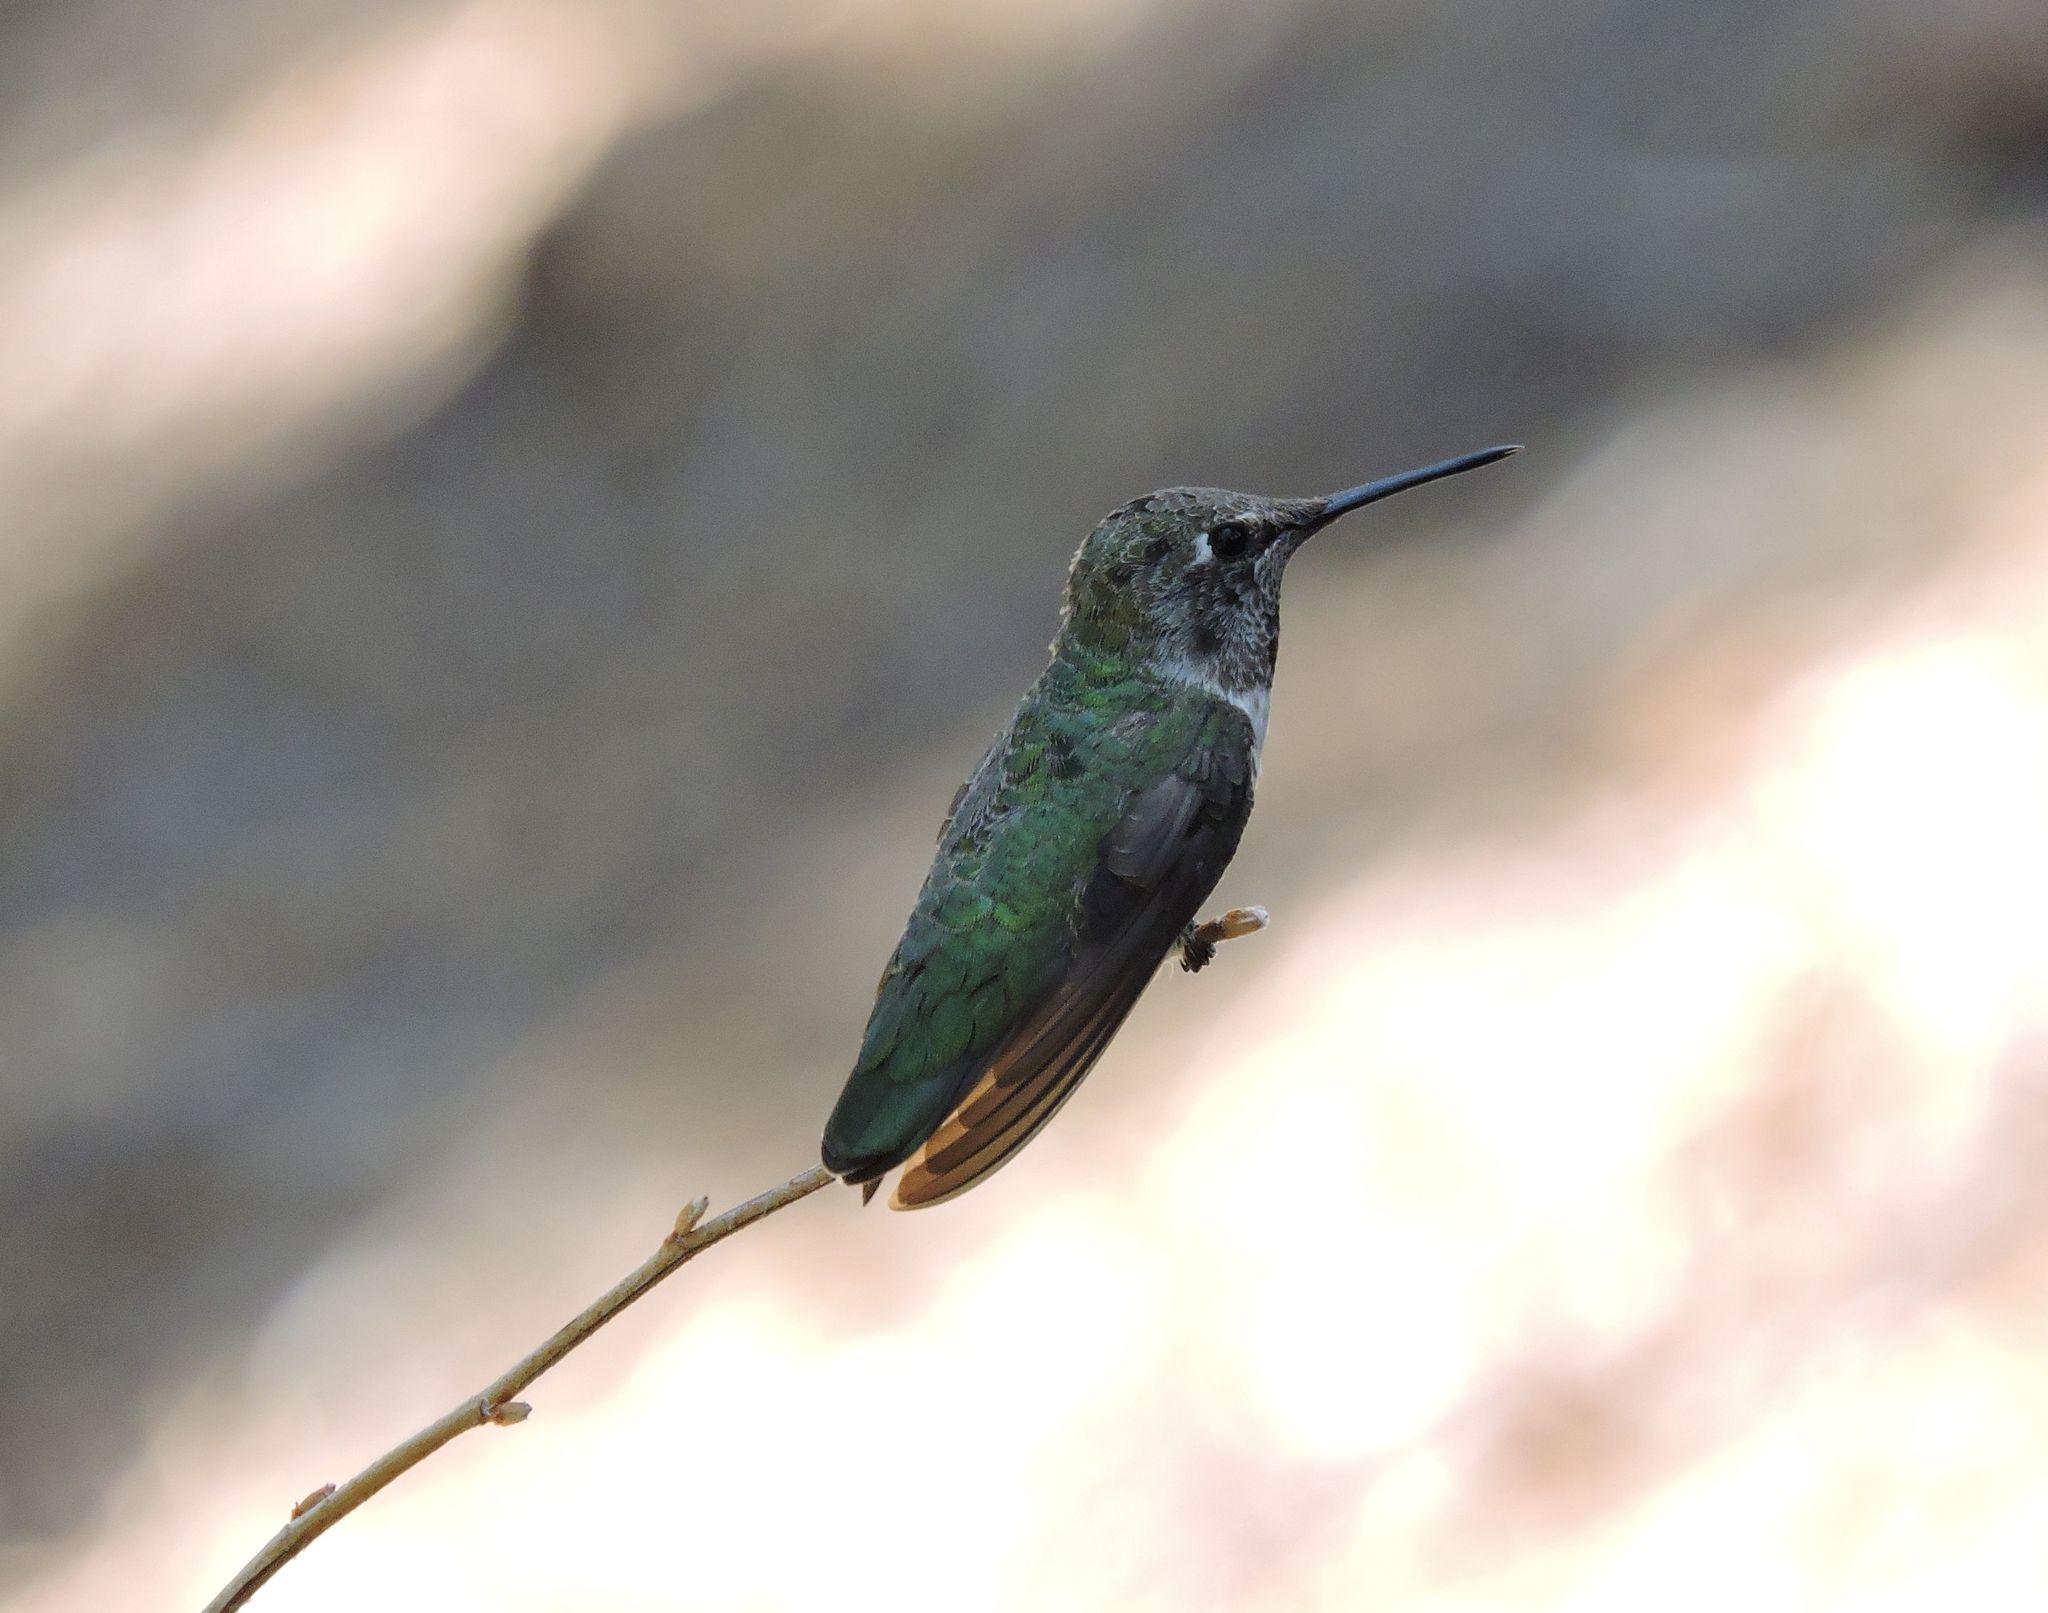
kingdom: Animalia
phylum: Chordata
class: Aves
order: Apodiformes
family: Trochilidae
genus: Calypte
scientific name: Calypte anna
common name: Anna's hummingbird
